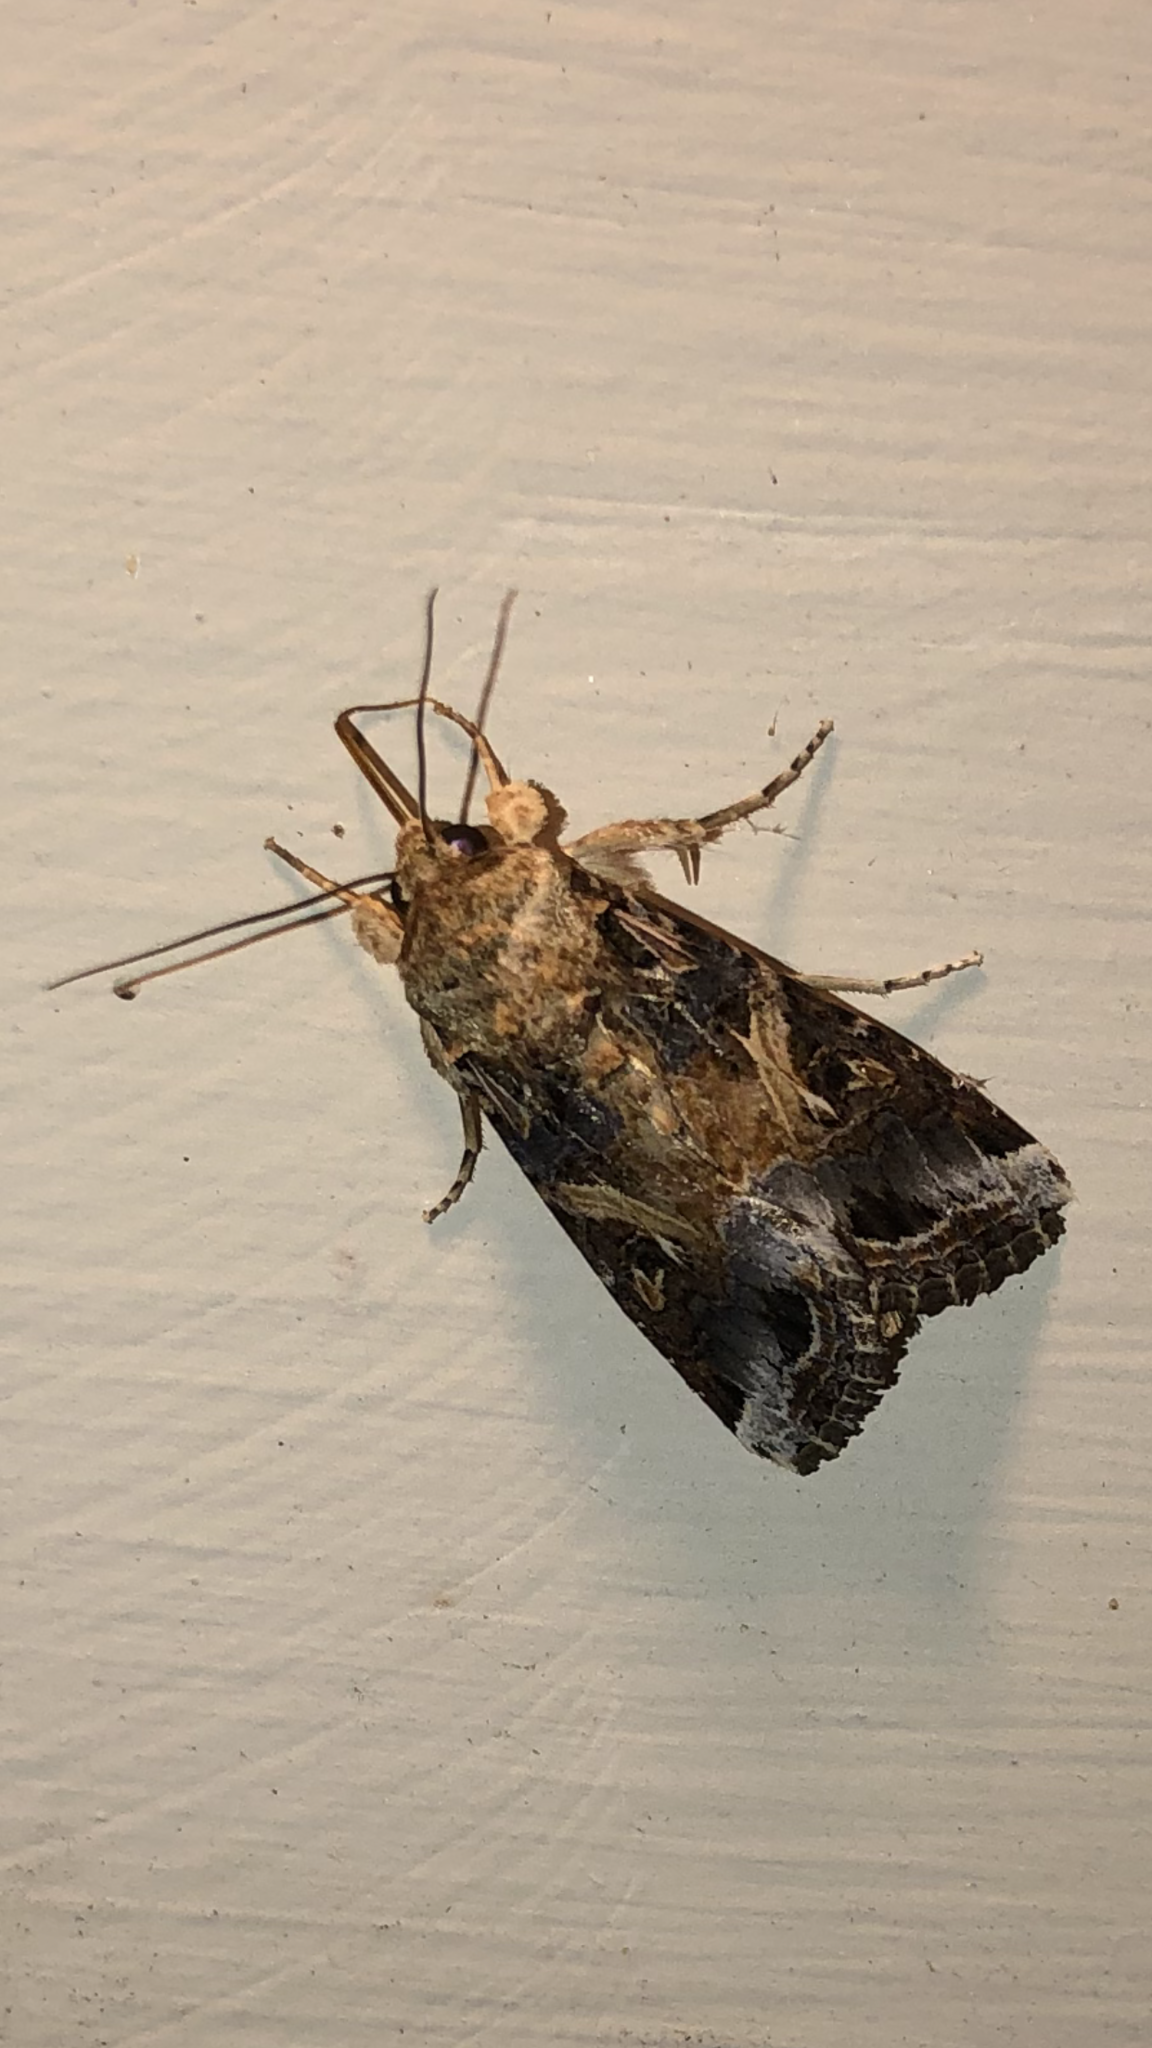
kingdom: Animalia
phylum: Arthropoda
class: Insecta
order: Lepidoptera
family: Noctuidae
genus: Spodoptera
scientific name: Spodoptera ornithogalli
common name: Yellow-striped armyworm
